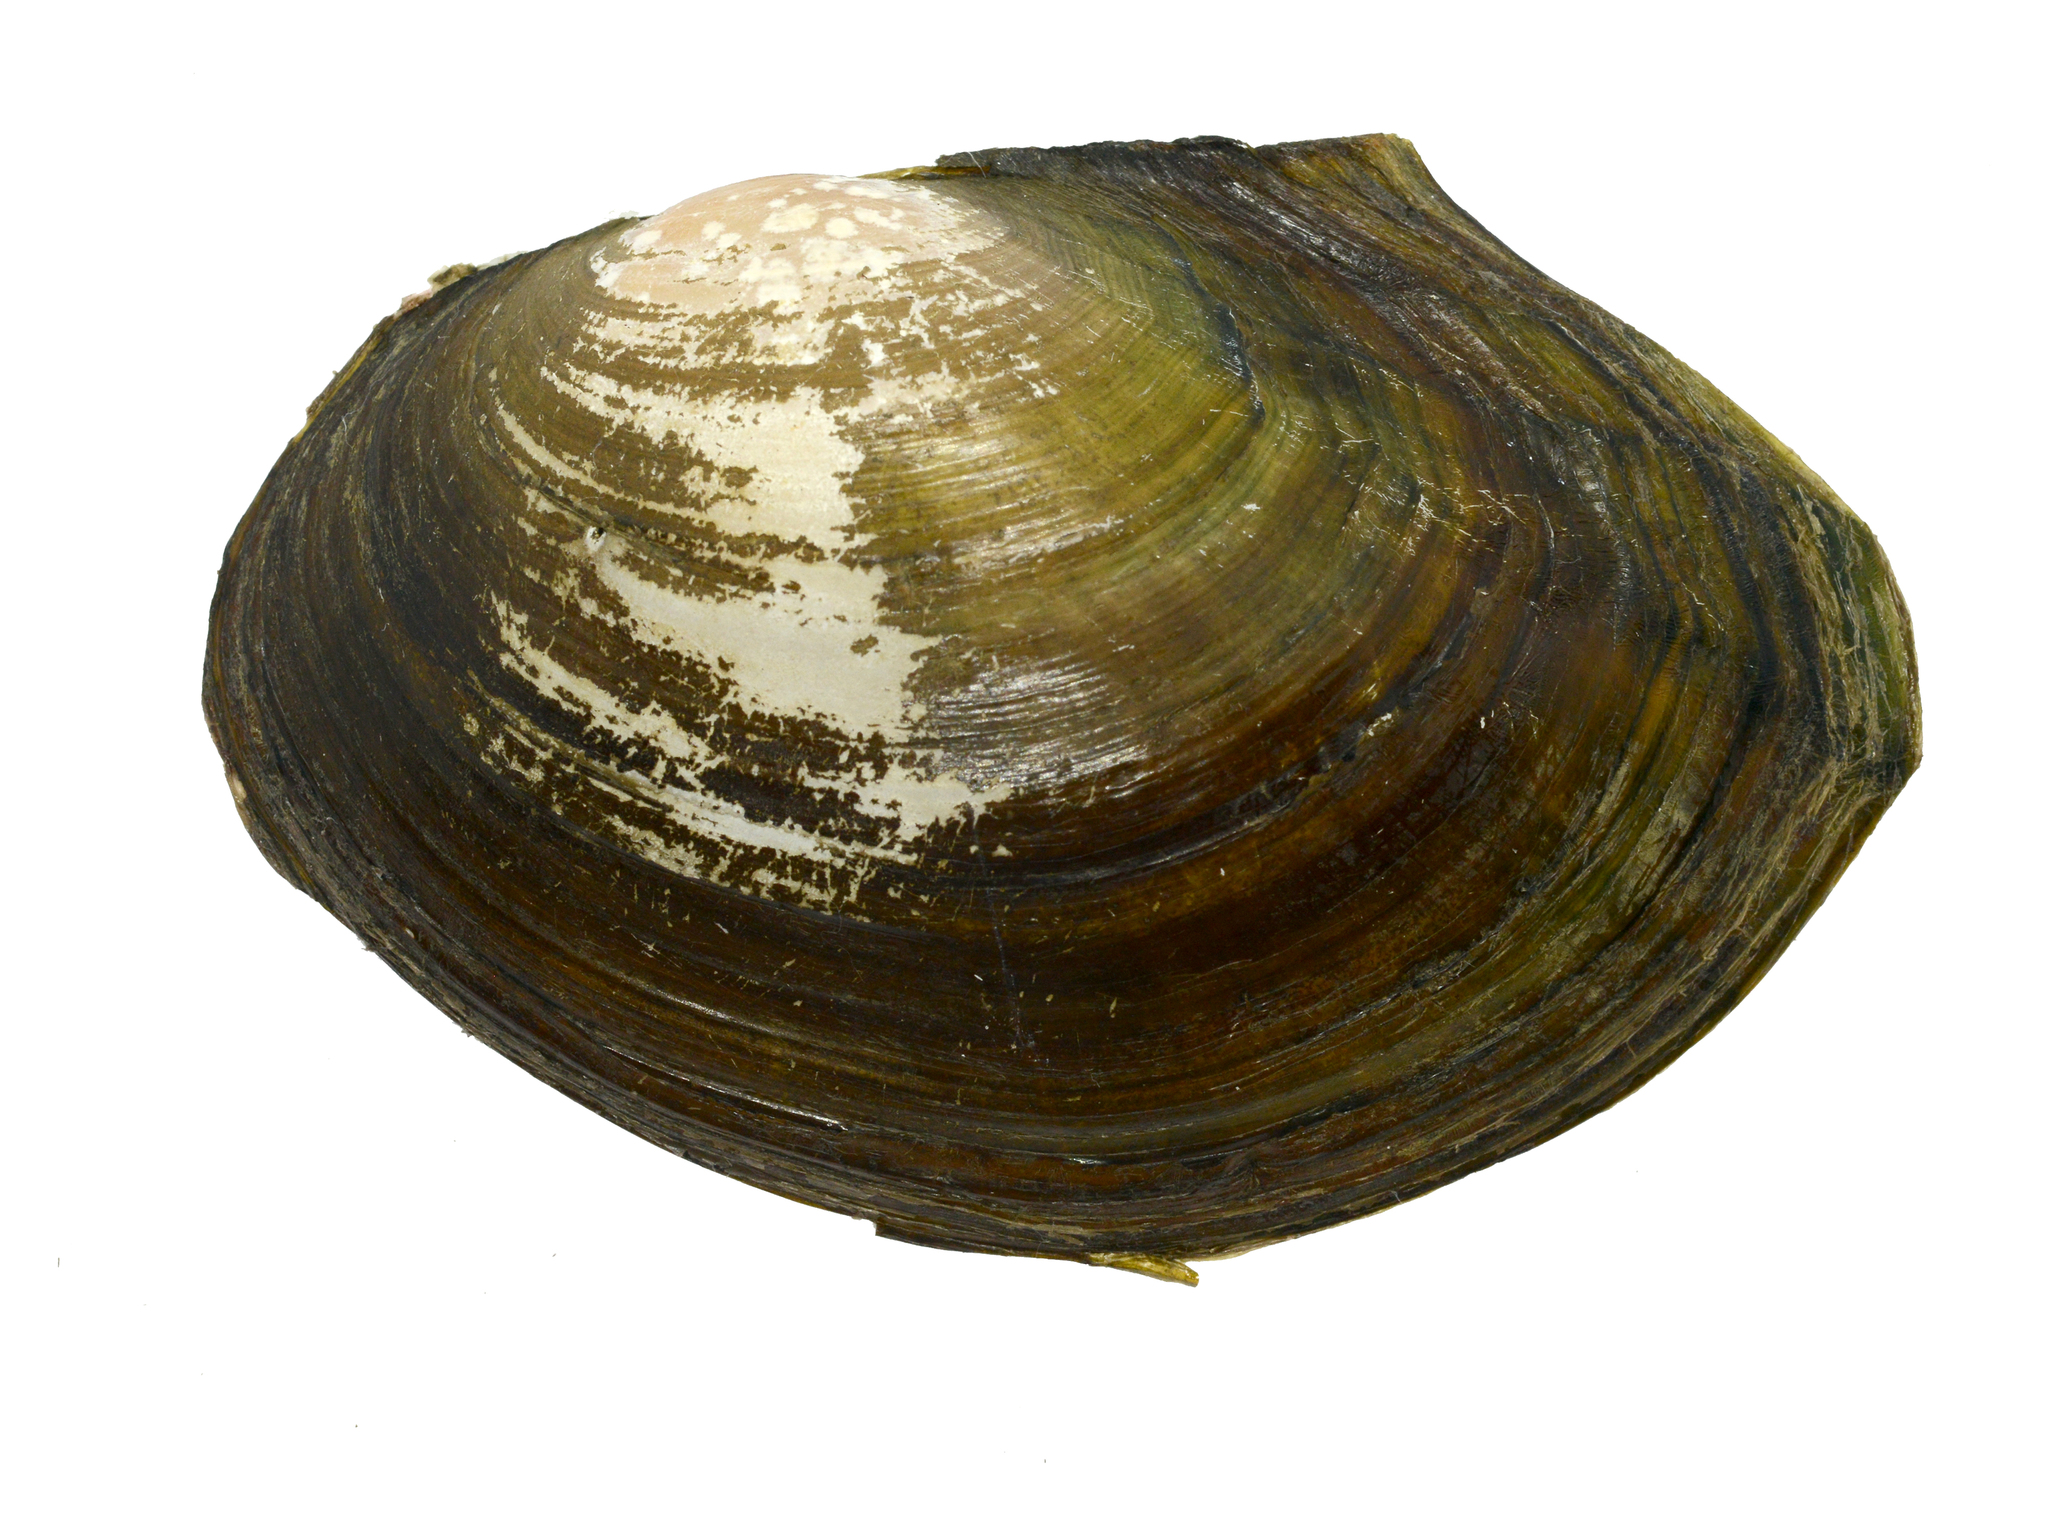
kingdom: Animalia
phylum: Mollusca
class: Bivalvia
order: Unionida
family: Unionidae
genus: Sinanodonta
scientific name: Sinanodonta lauta
